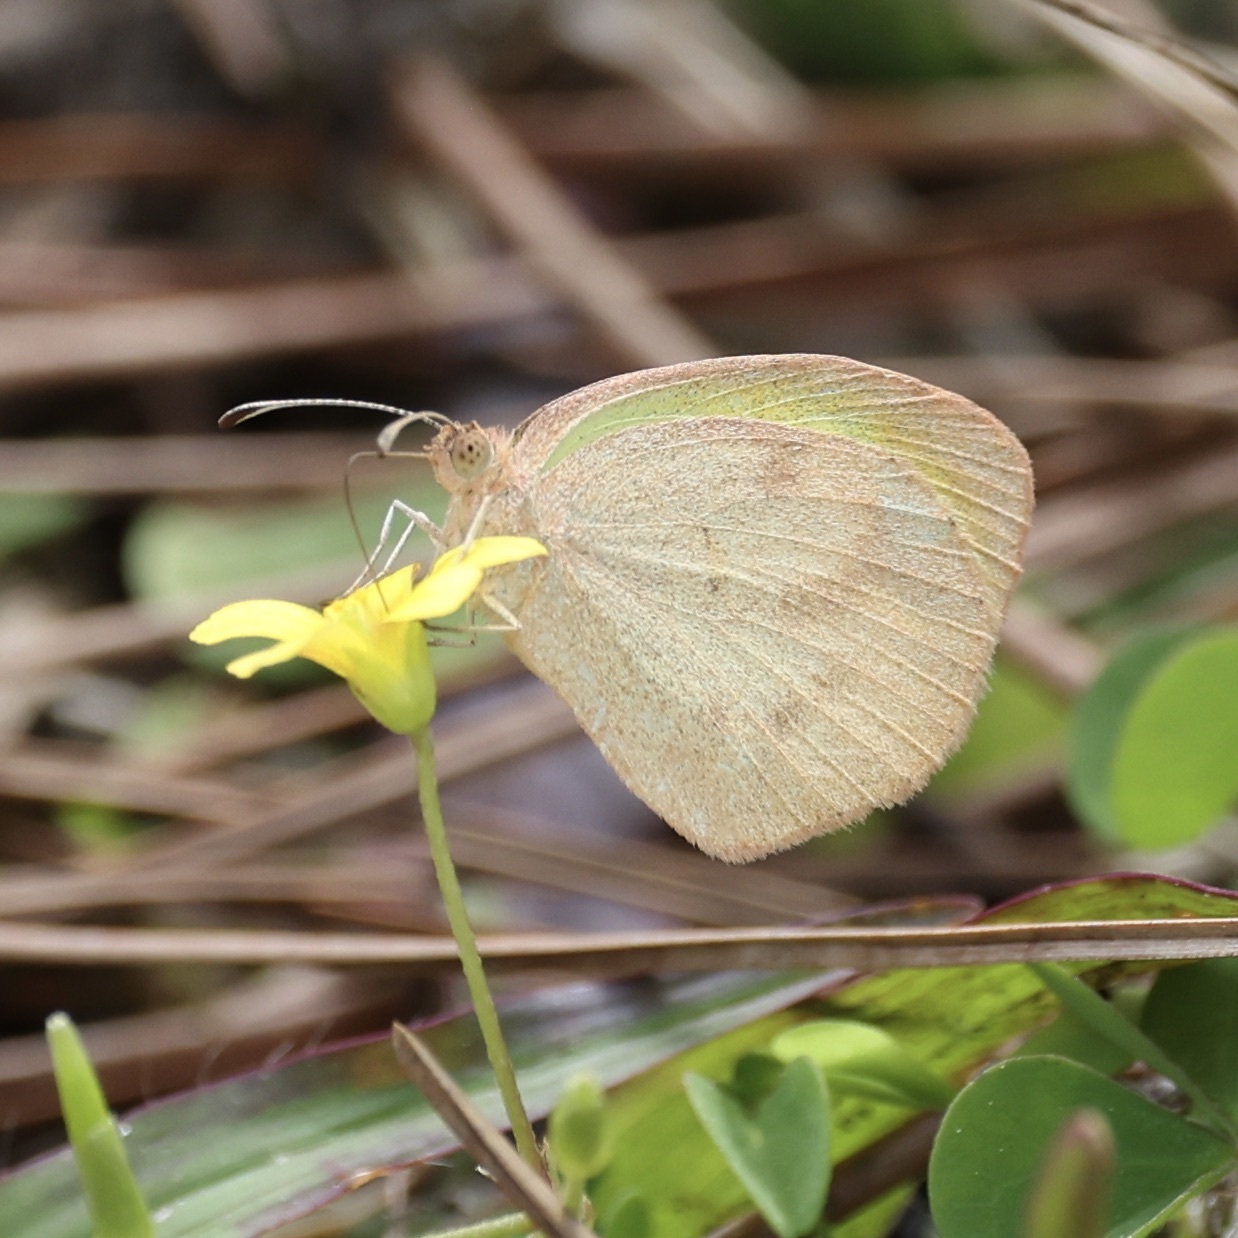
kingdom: Animalia
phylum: Arthropoda
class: Insecta
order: Lepidoptera
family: Pieridae
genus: Eurema
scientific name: Eurema daira
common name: Barred sulphur
